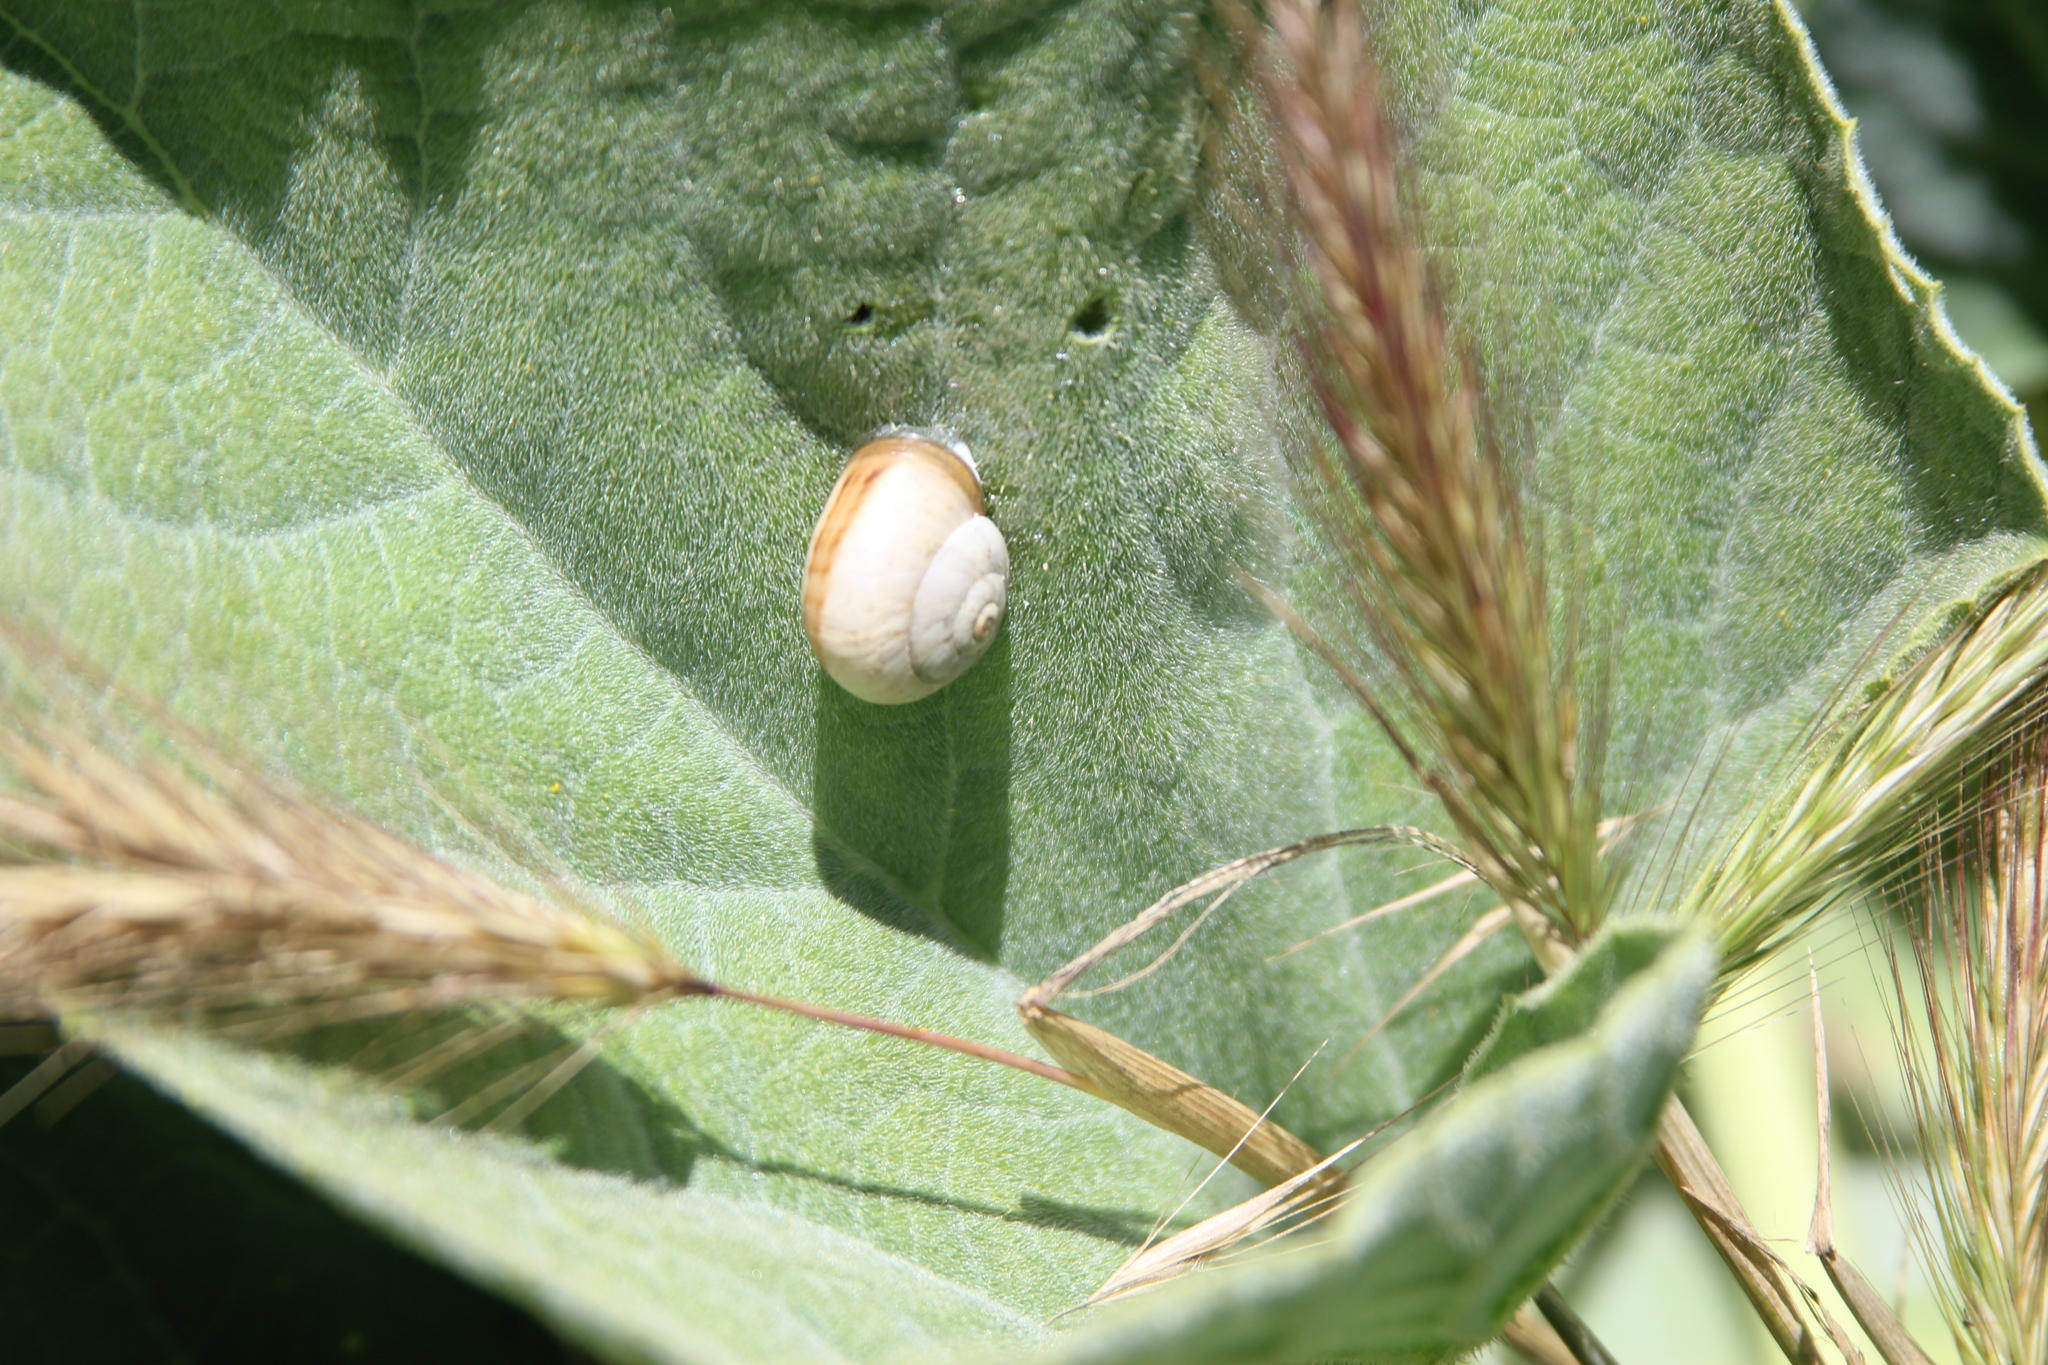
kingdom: Animalia
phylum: Mollusca
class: Gastropoda
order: Stylommatophora
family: Helicidae
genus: Theba
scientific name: Theba pisana
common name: White snail
